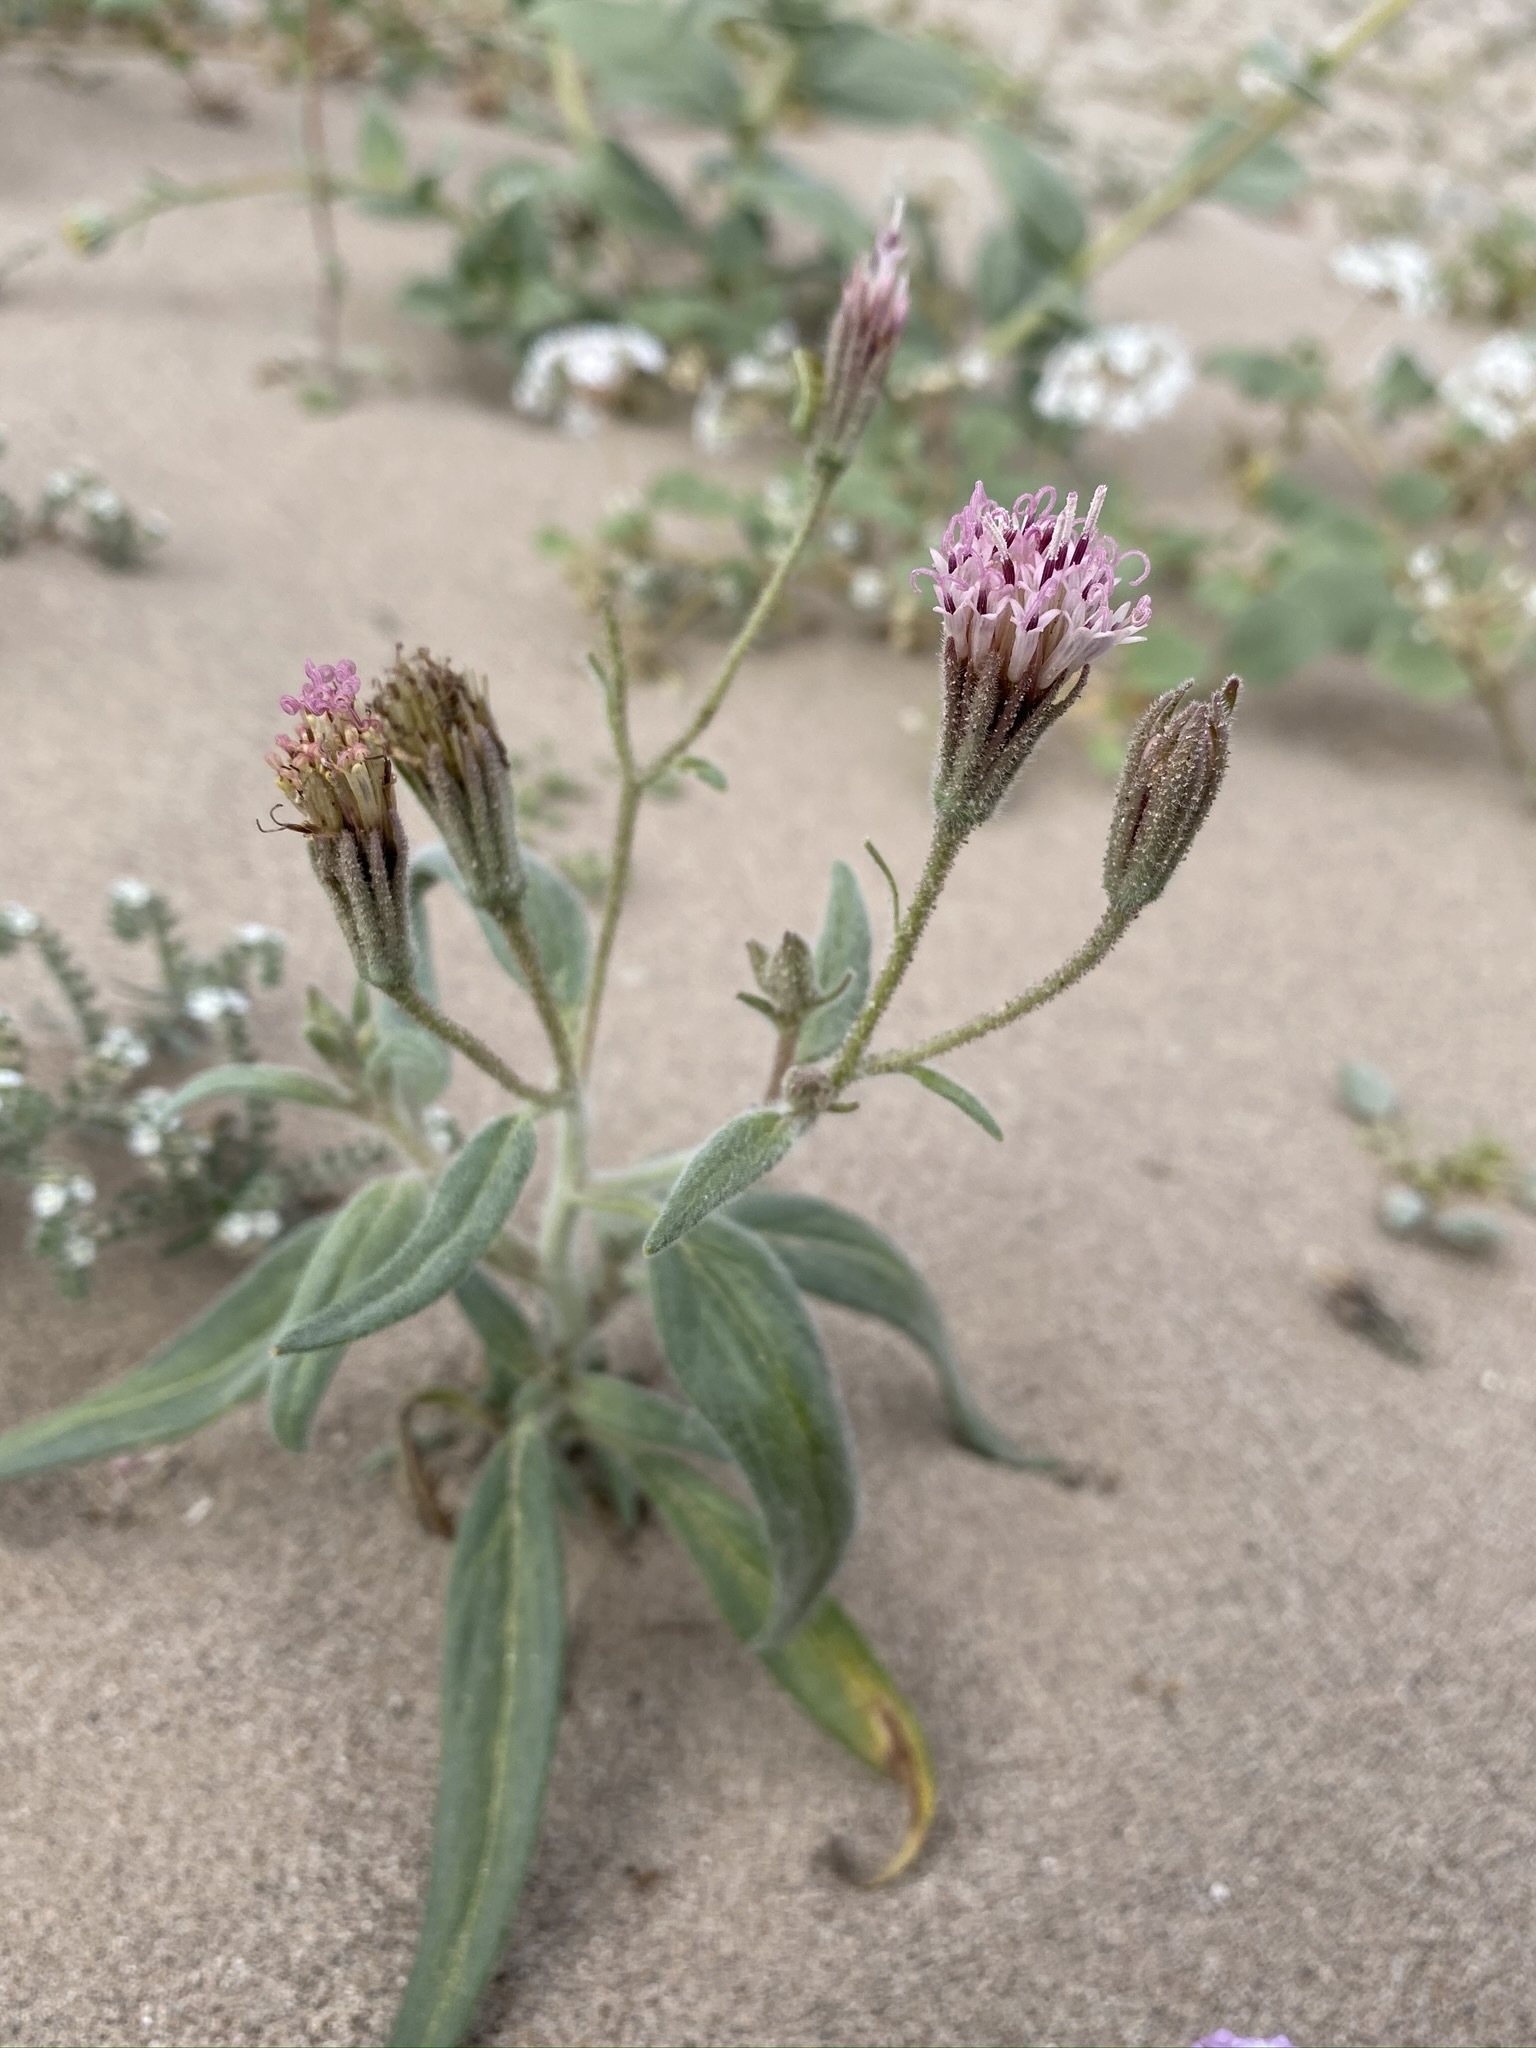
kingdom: Plantae
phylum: Tracheophyta
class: Magnoliopsida
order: Asterales
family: Asteraceae
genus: Palafoxia
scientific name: Palafoxia arida
